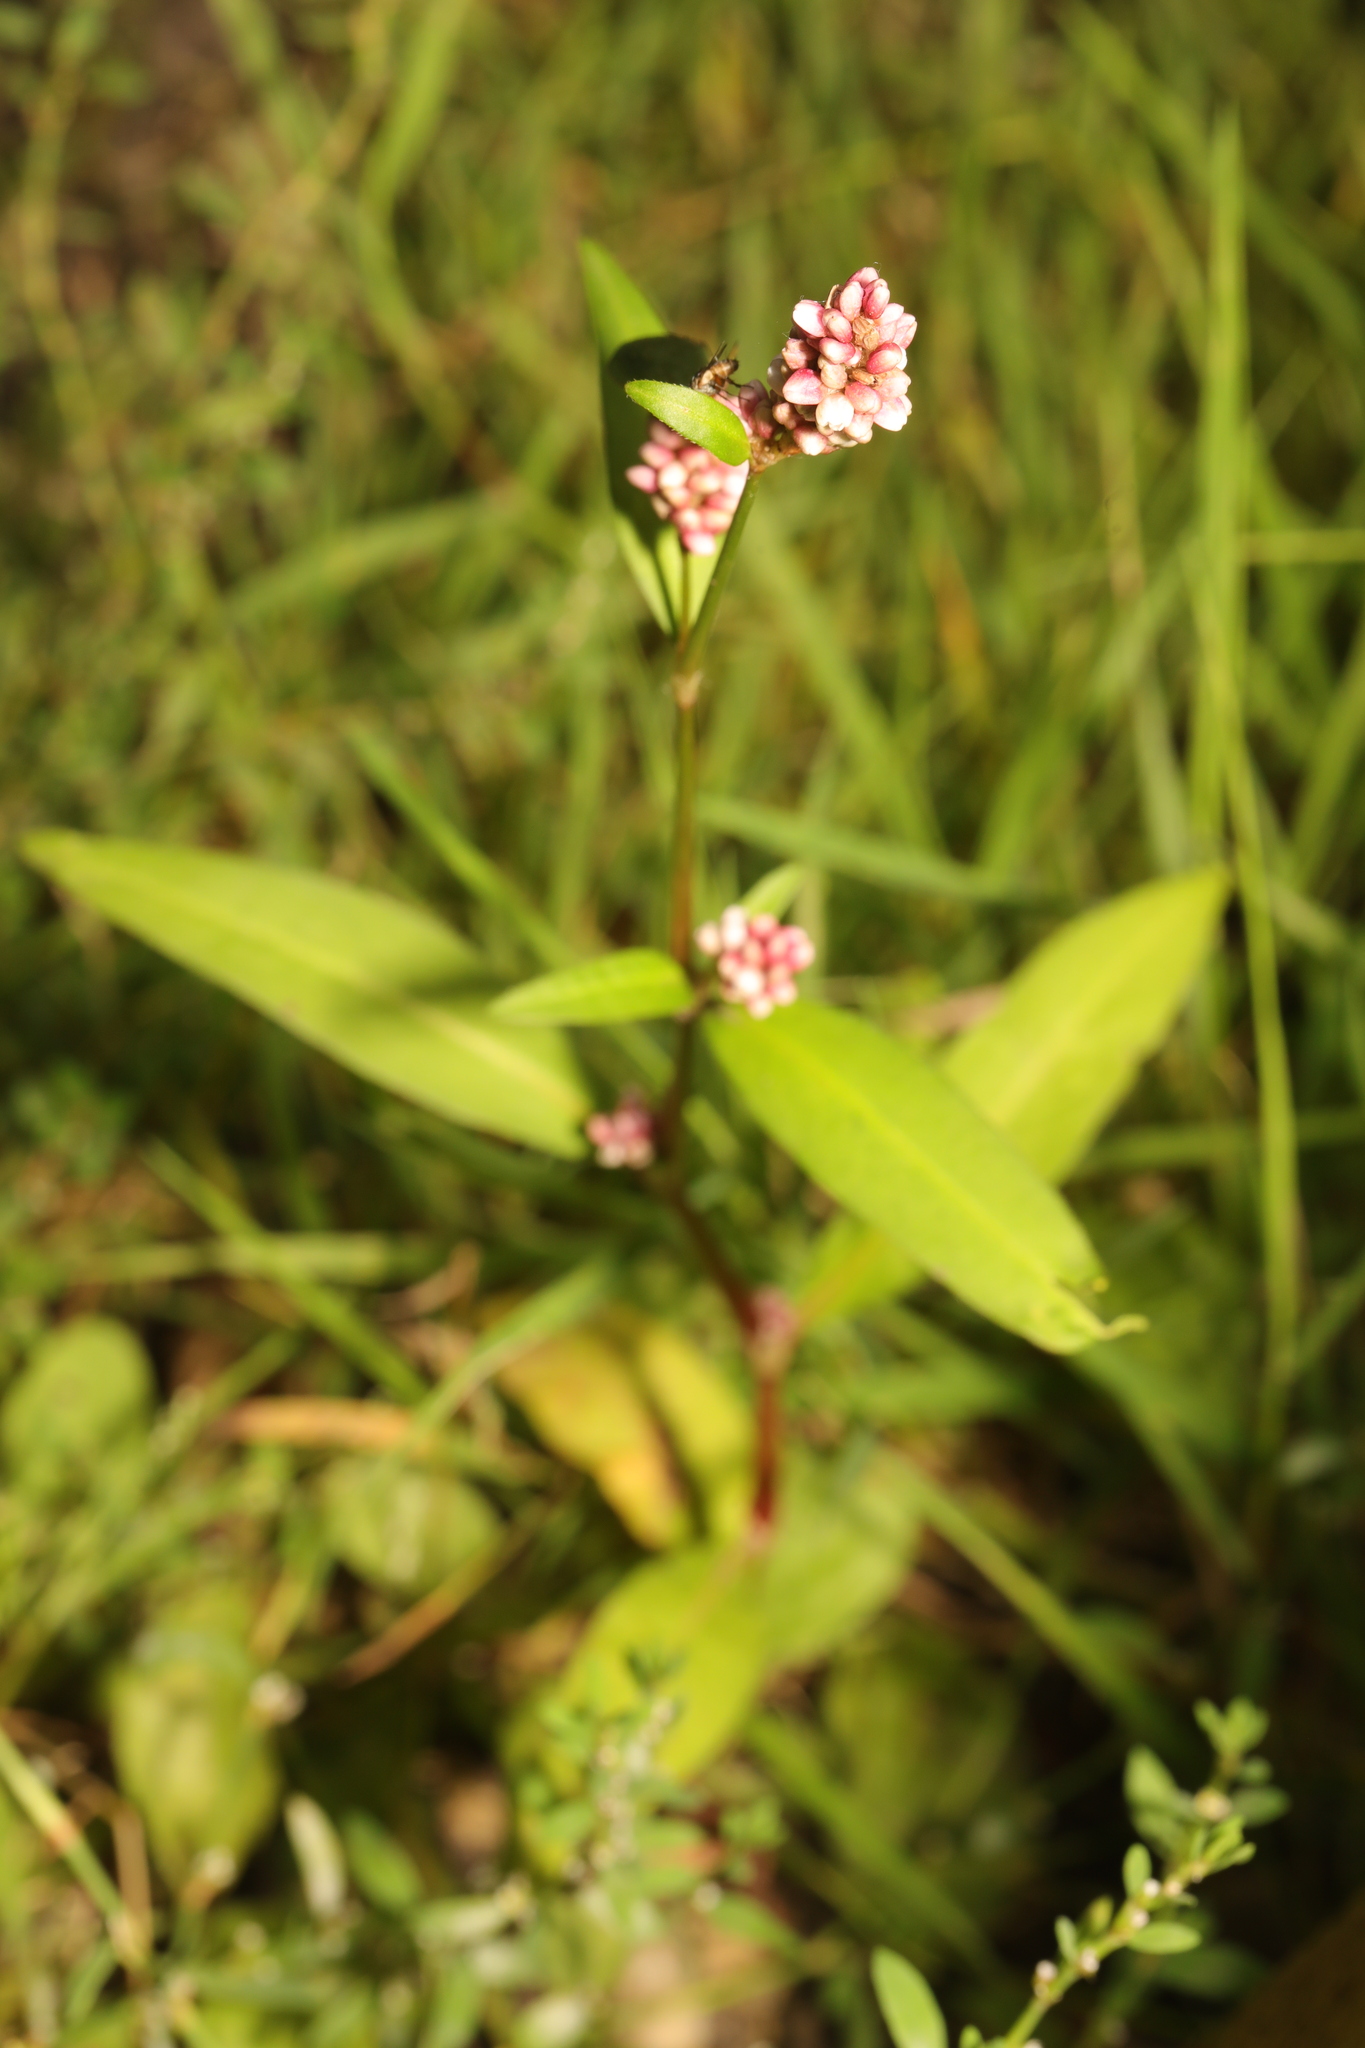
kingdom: Plantae
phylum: Tracheophyta
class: Magnoliopsida
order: Caryophyllales
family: Polygonaceae
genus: Persicaria
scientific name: Persicaria maculosa
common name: Redshank
